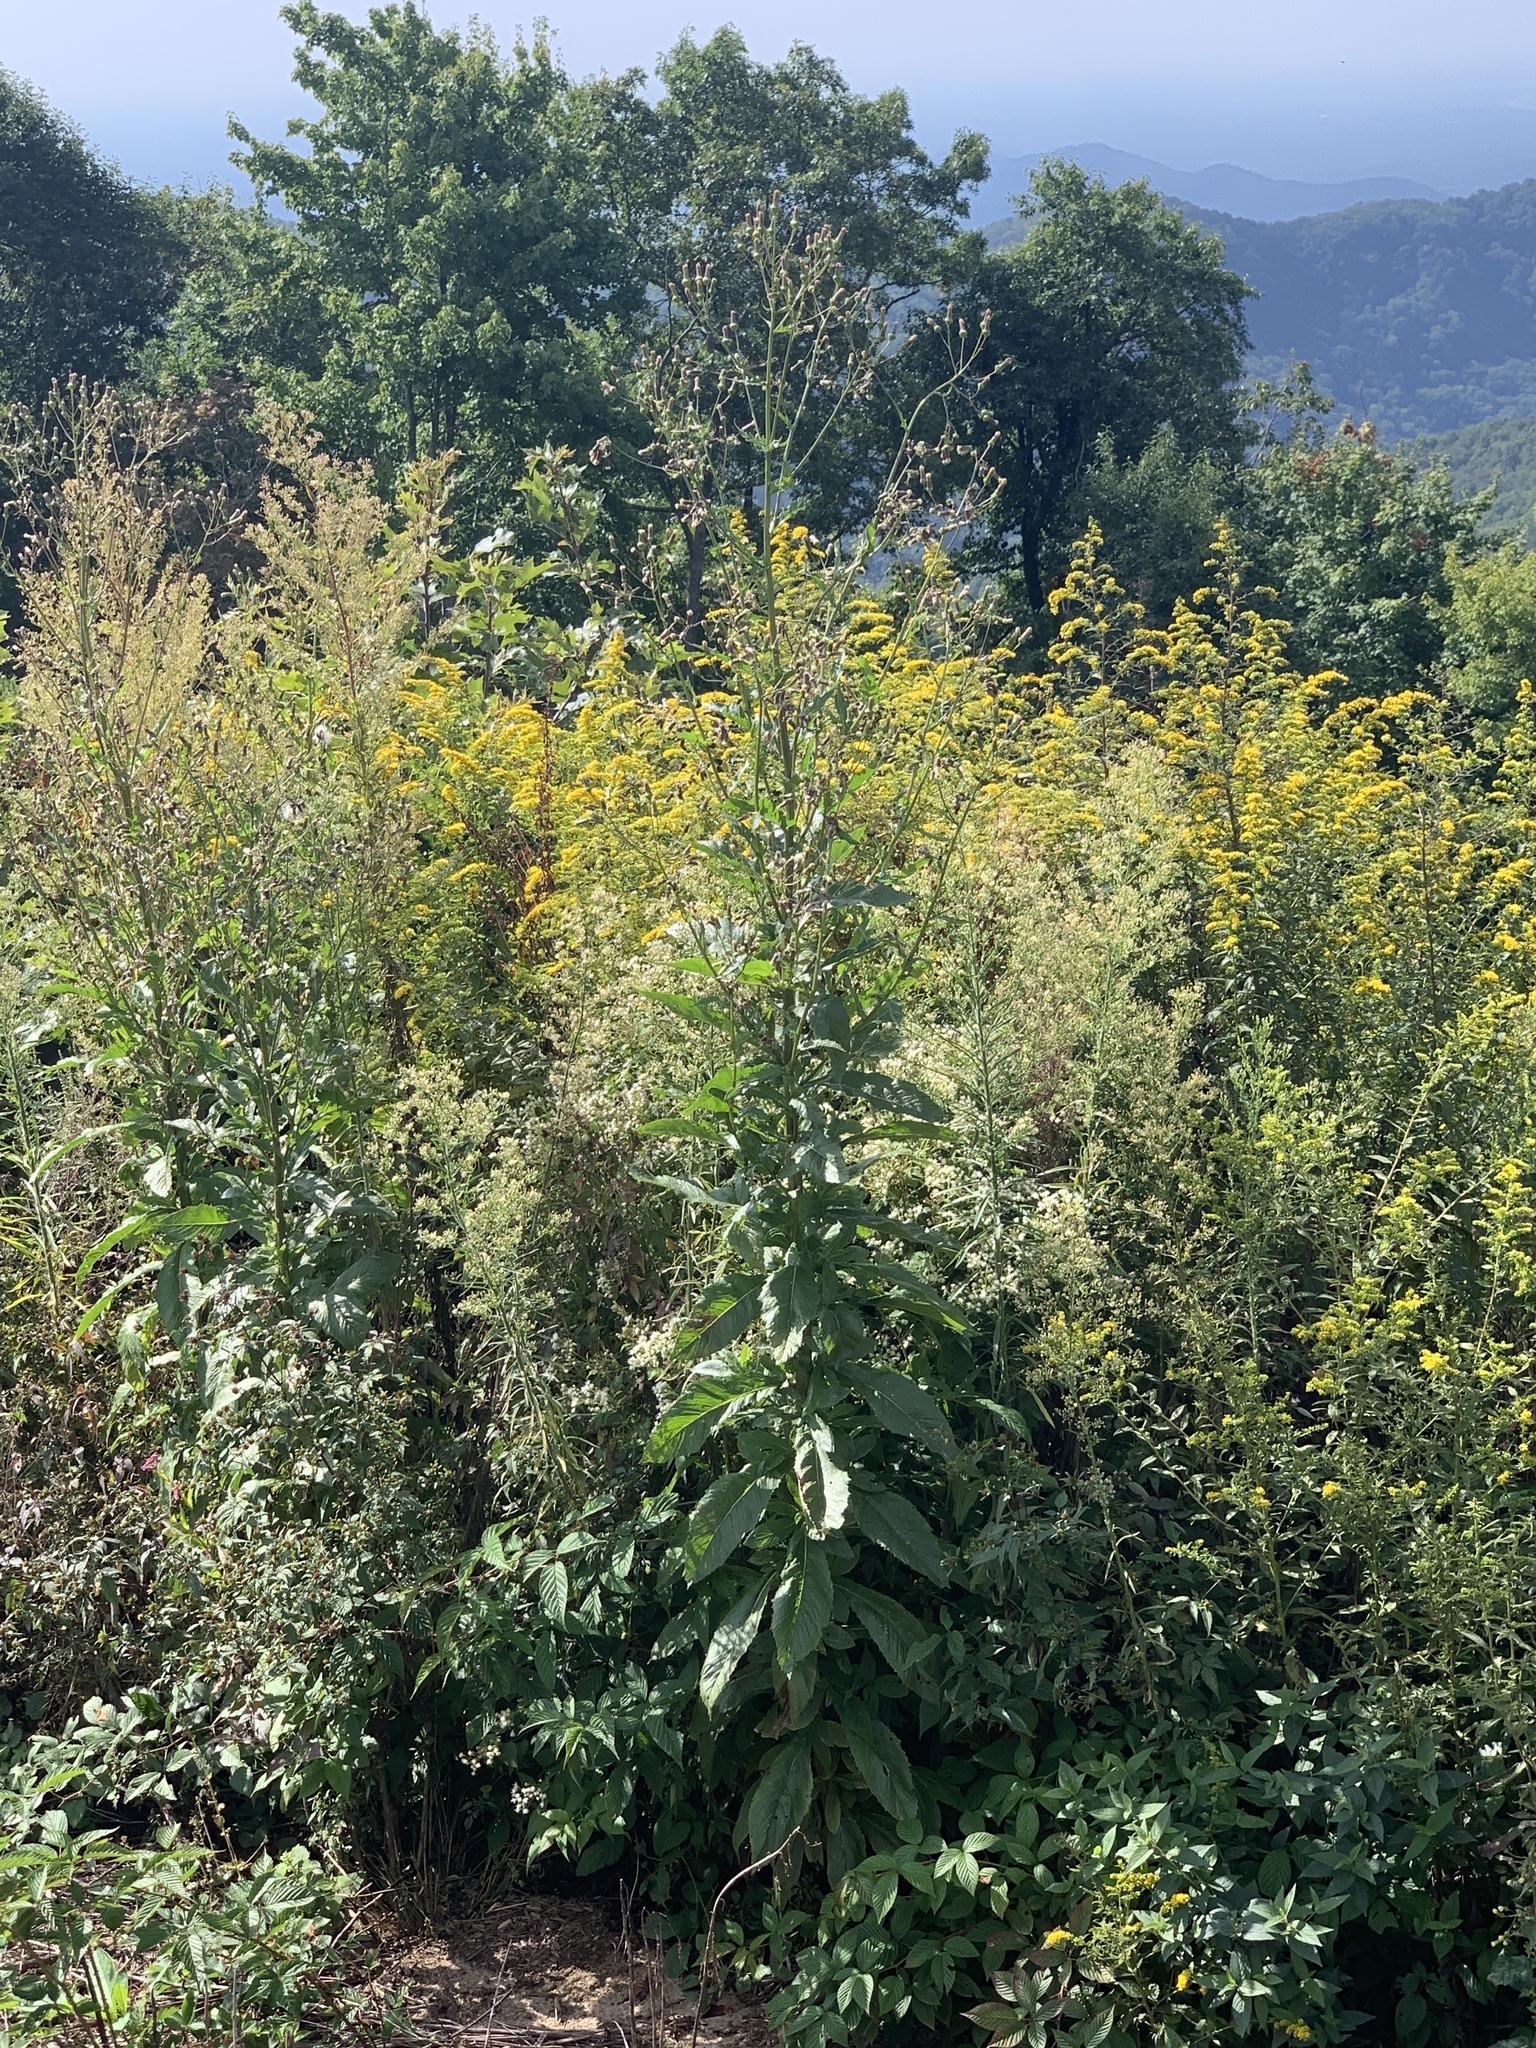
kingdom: Plantae
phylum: Tracheophyta
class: Magnoliopsida
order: Asterales
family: Asteraceae
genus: Erechtites
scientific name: Erechtites hieraciifolius
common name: American burnweed
